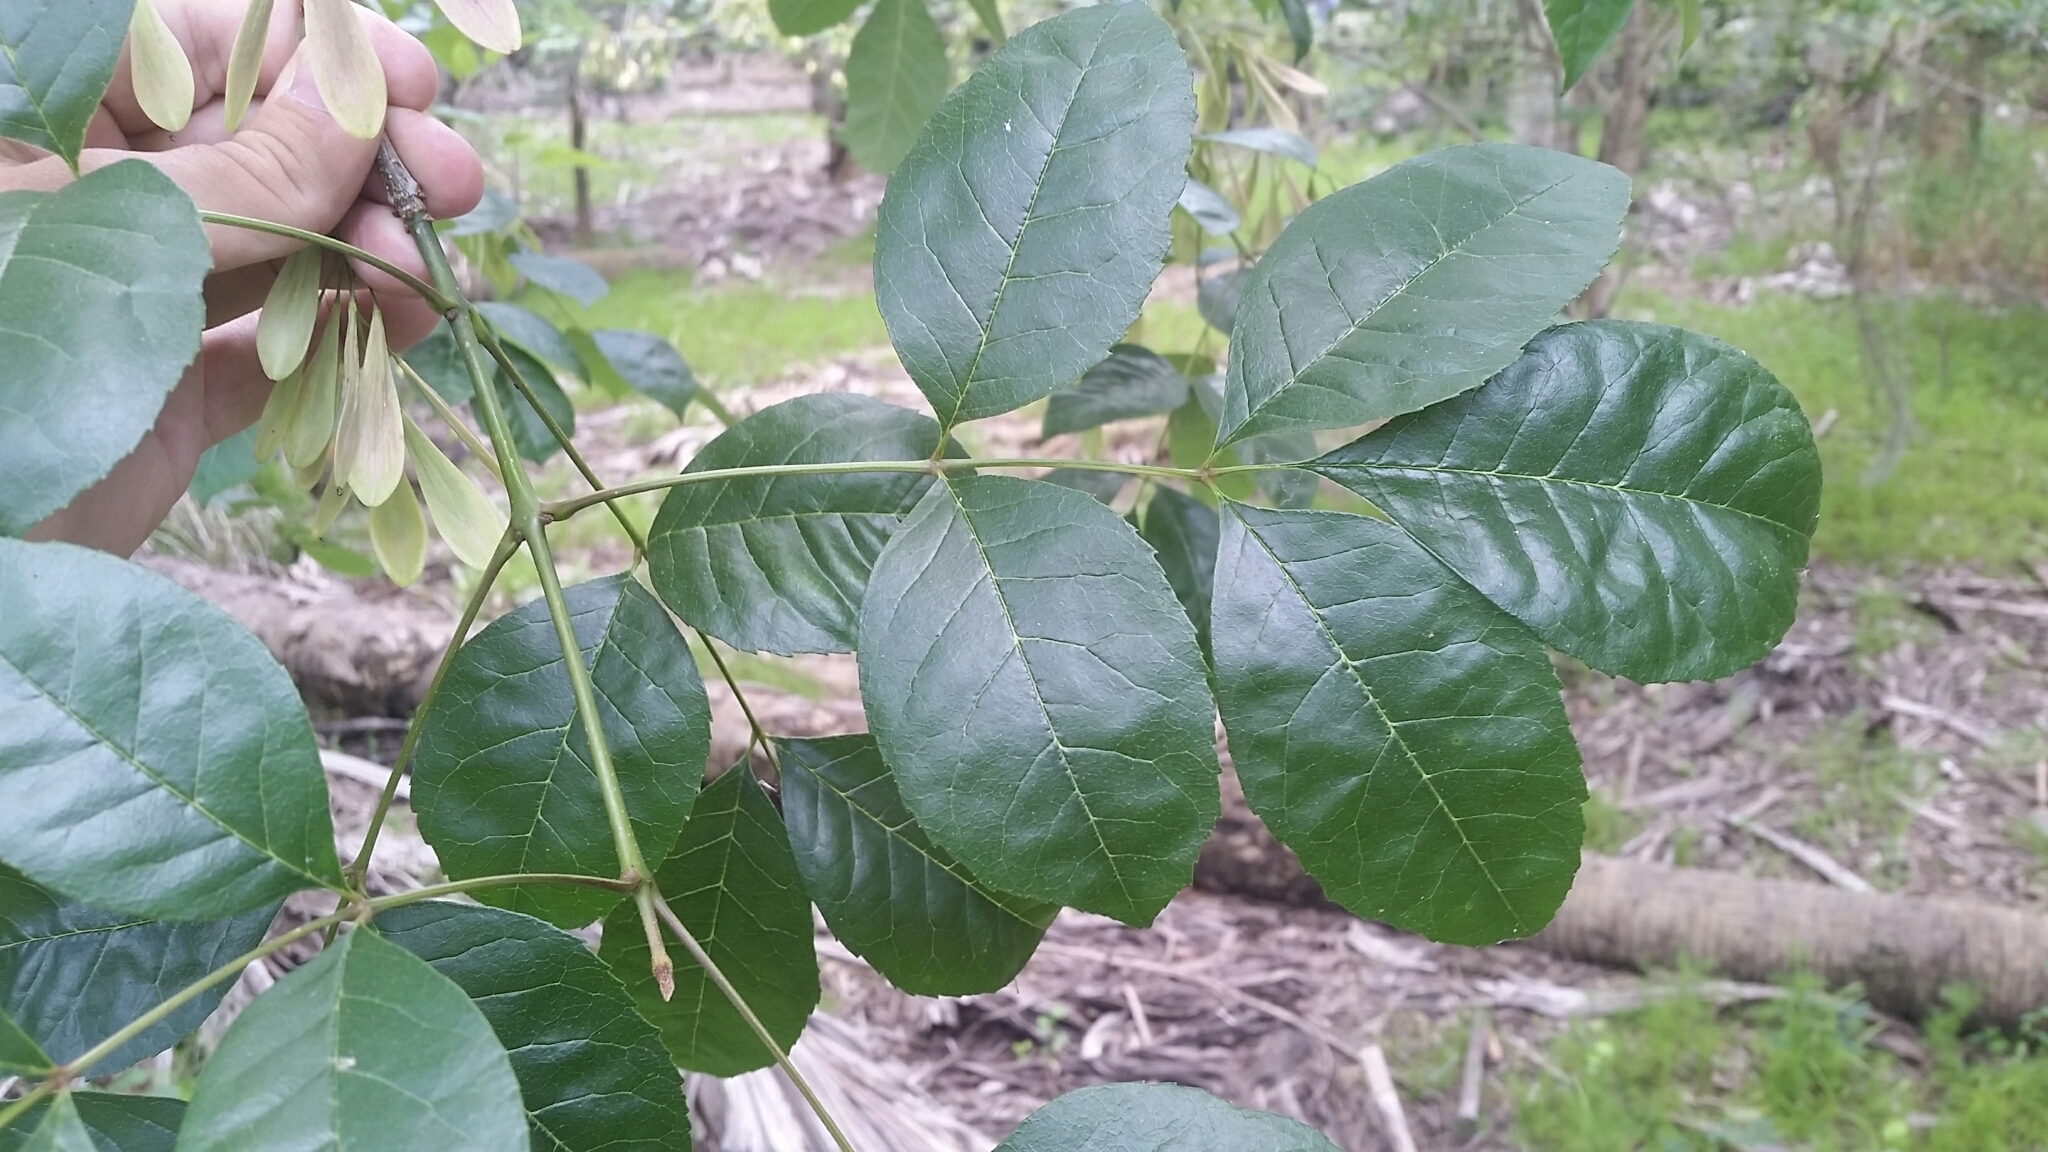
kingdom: Plantae
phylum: Tracheophyta
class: Magnoliopsida
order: Lamiales
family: Oleaceae
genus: Fraxinus
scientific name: Fraxinus caroliniana
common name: Carolina ash
